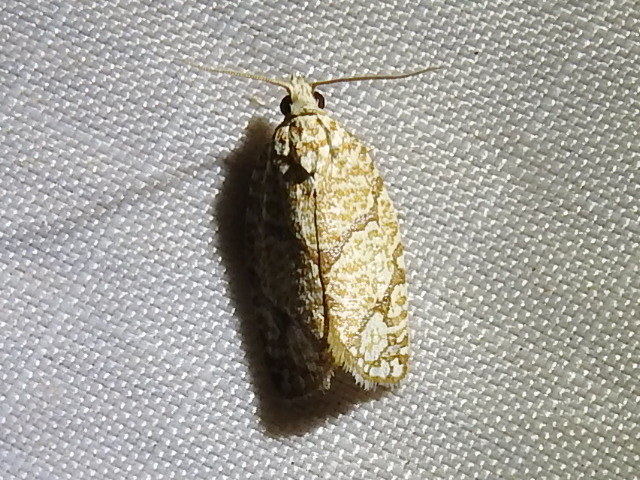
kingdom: Animalia
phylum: Arthropoda
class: Insecta
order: Lepidoptera
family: Tortricidae
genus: Argyrotaenia
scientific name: Argyrotaenia quercifoliana
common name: Yellow-winged oak leafroller moth
